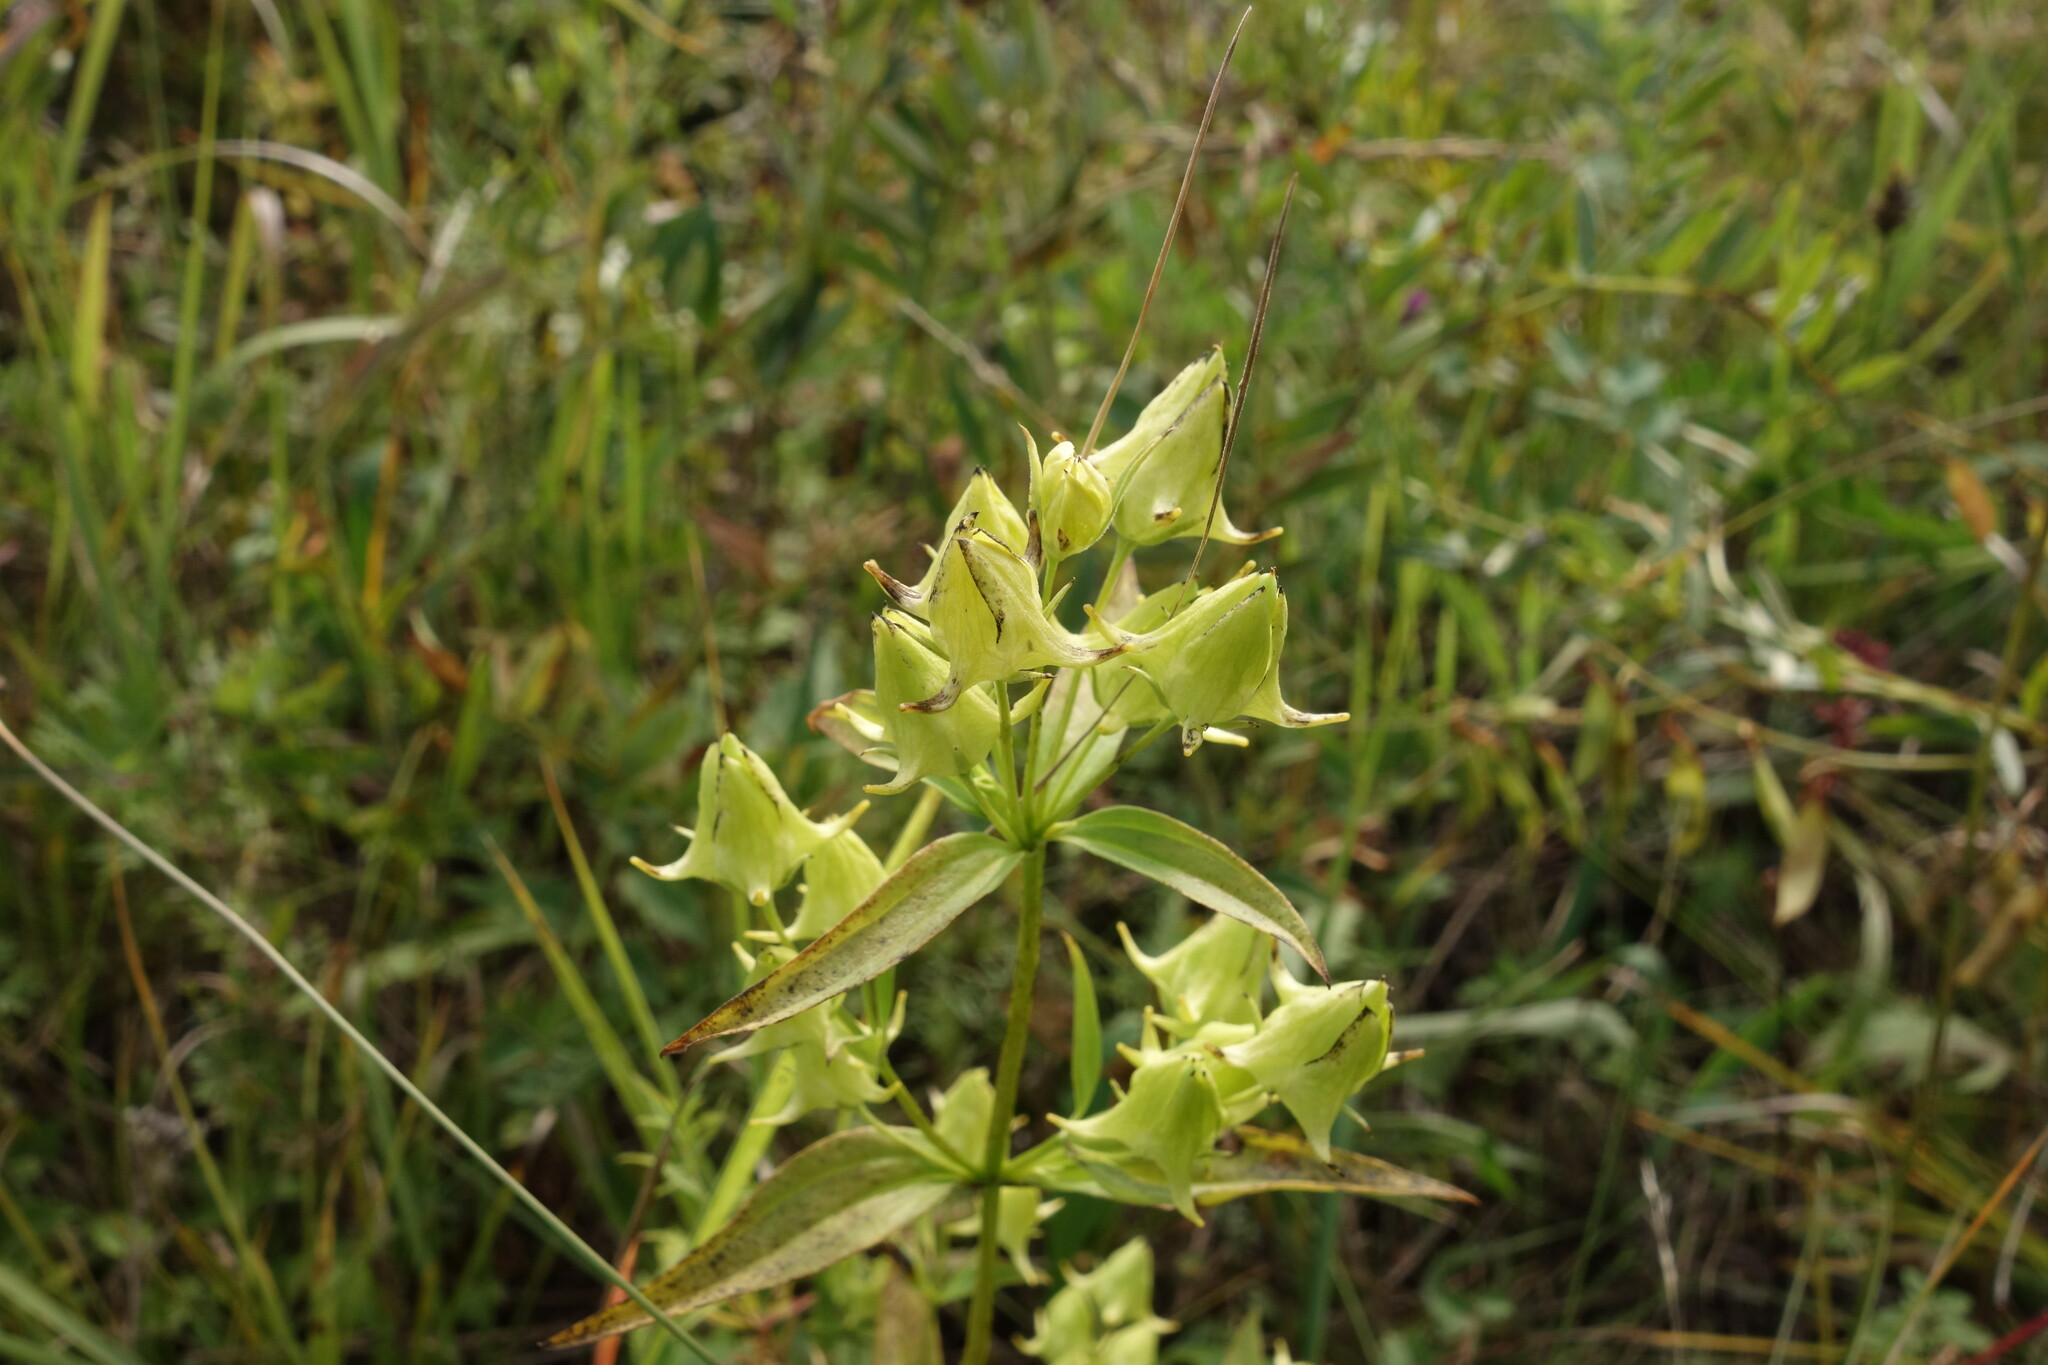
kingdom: Plantae
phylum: Tracheophyta
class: Magnoliopsida
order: Gentianales
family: Gentianaceae
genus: Halenia
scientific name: Halenia corniculata
